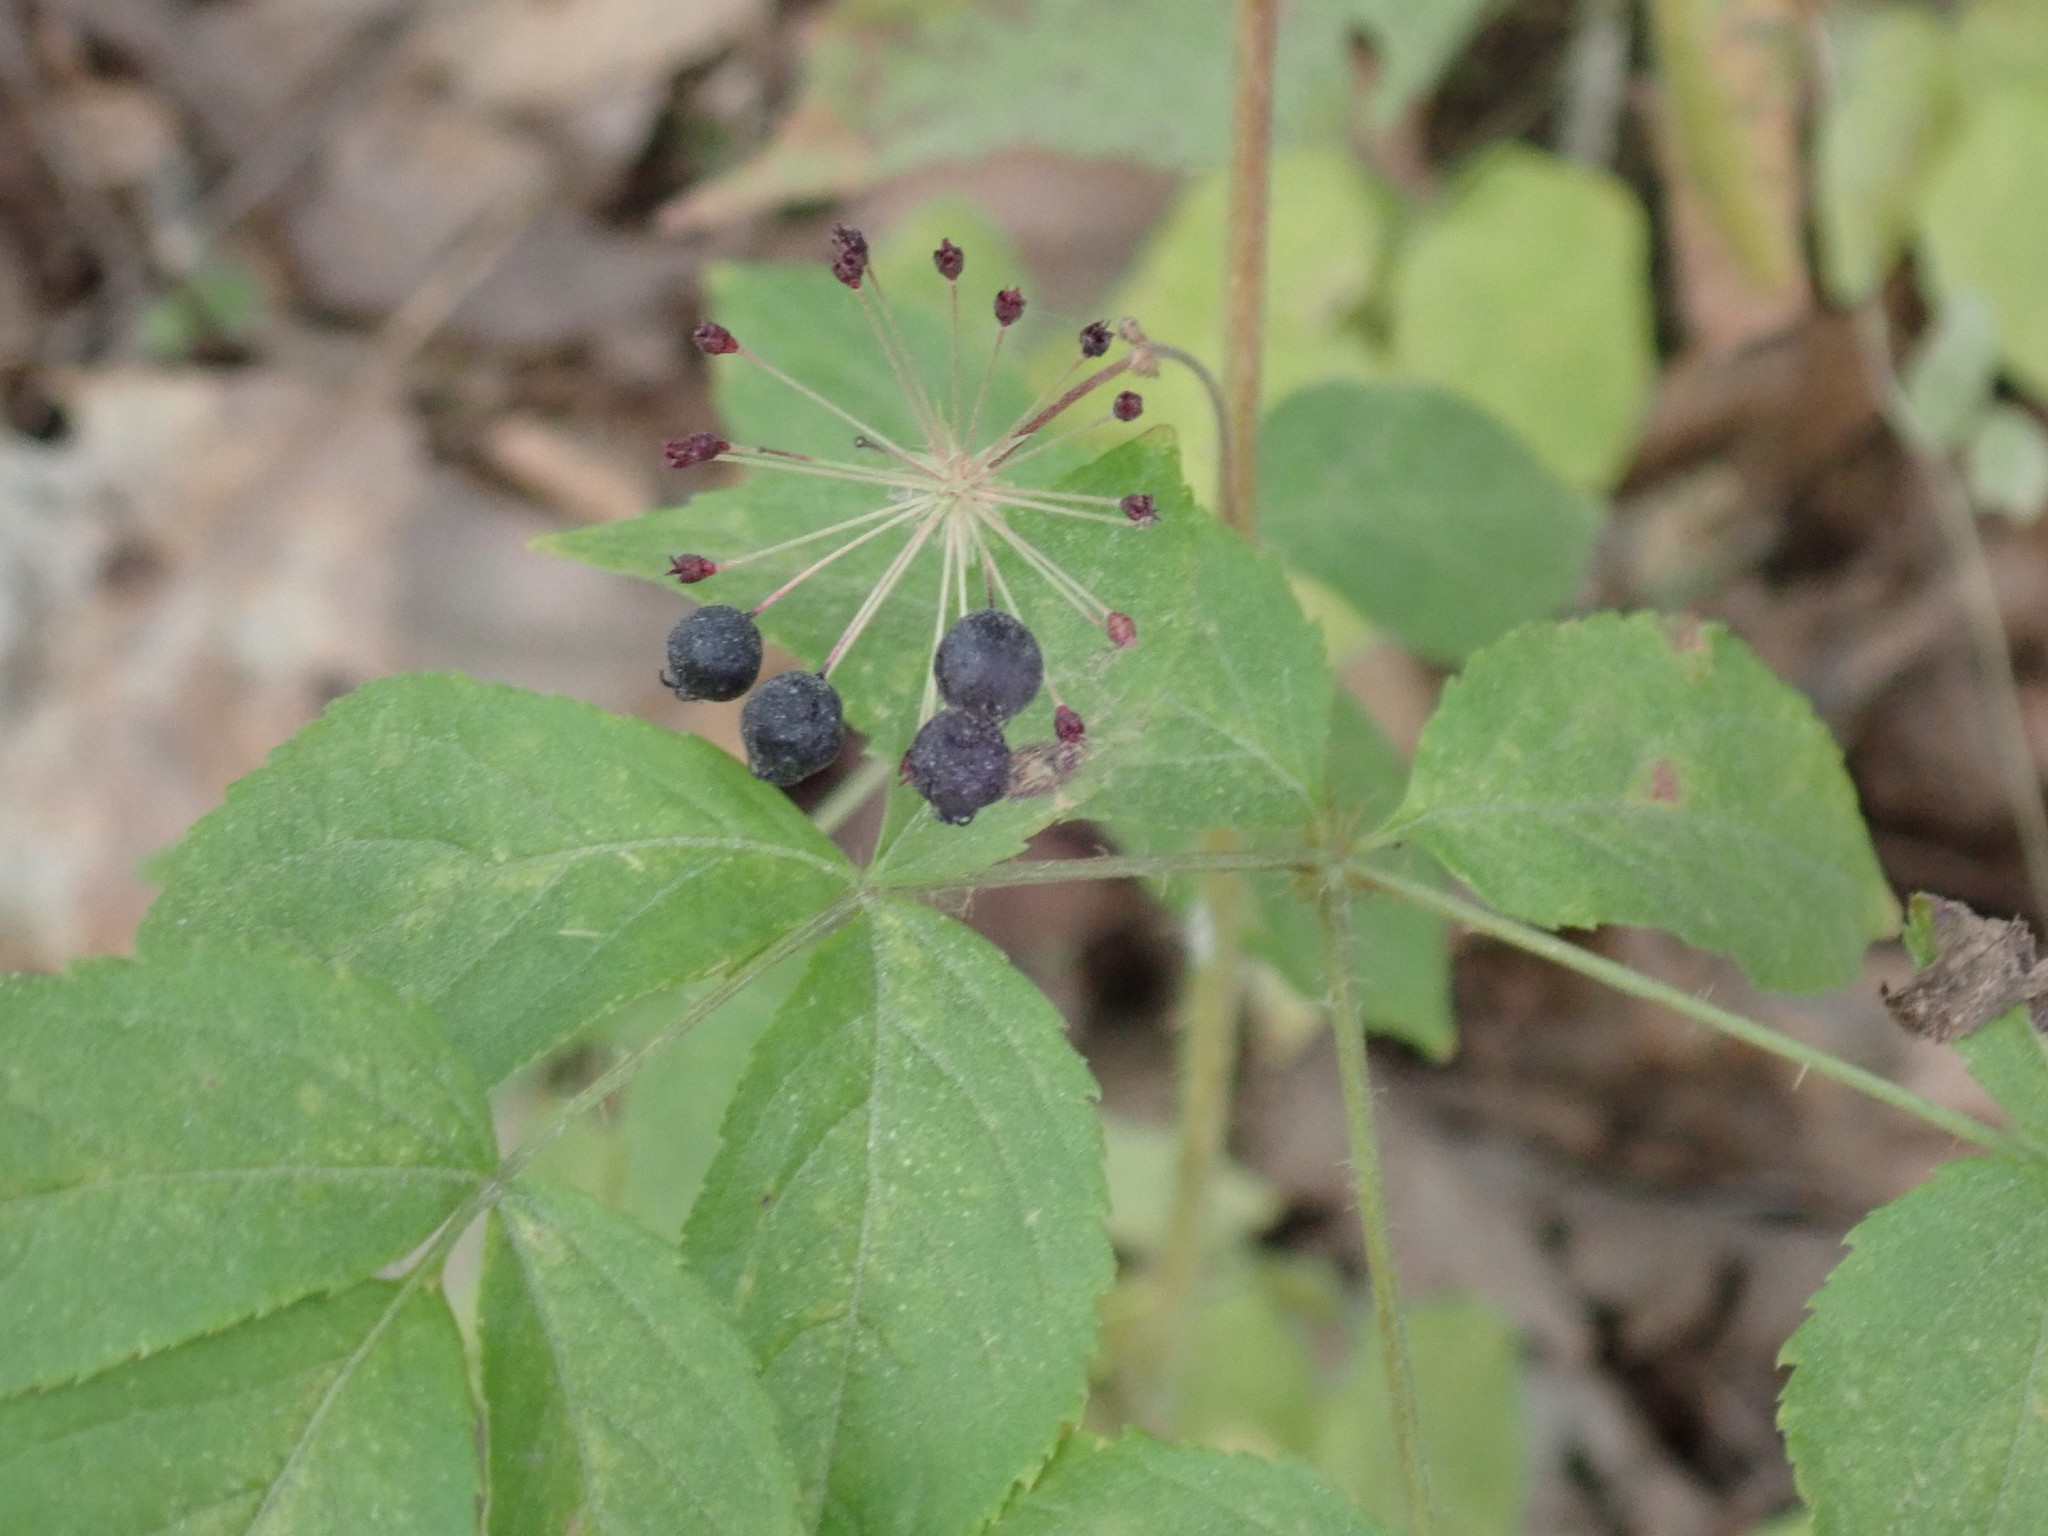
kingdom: Plantae
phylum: Tracheophyta
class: Magnoliopsida
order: Apiales
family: Araliaceae
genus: Aralia
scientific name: Aralia hispida
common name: Bristly sarsaparilla
